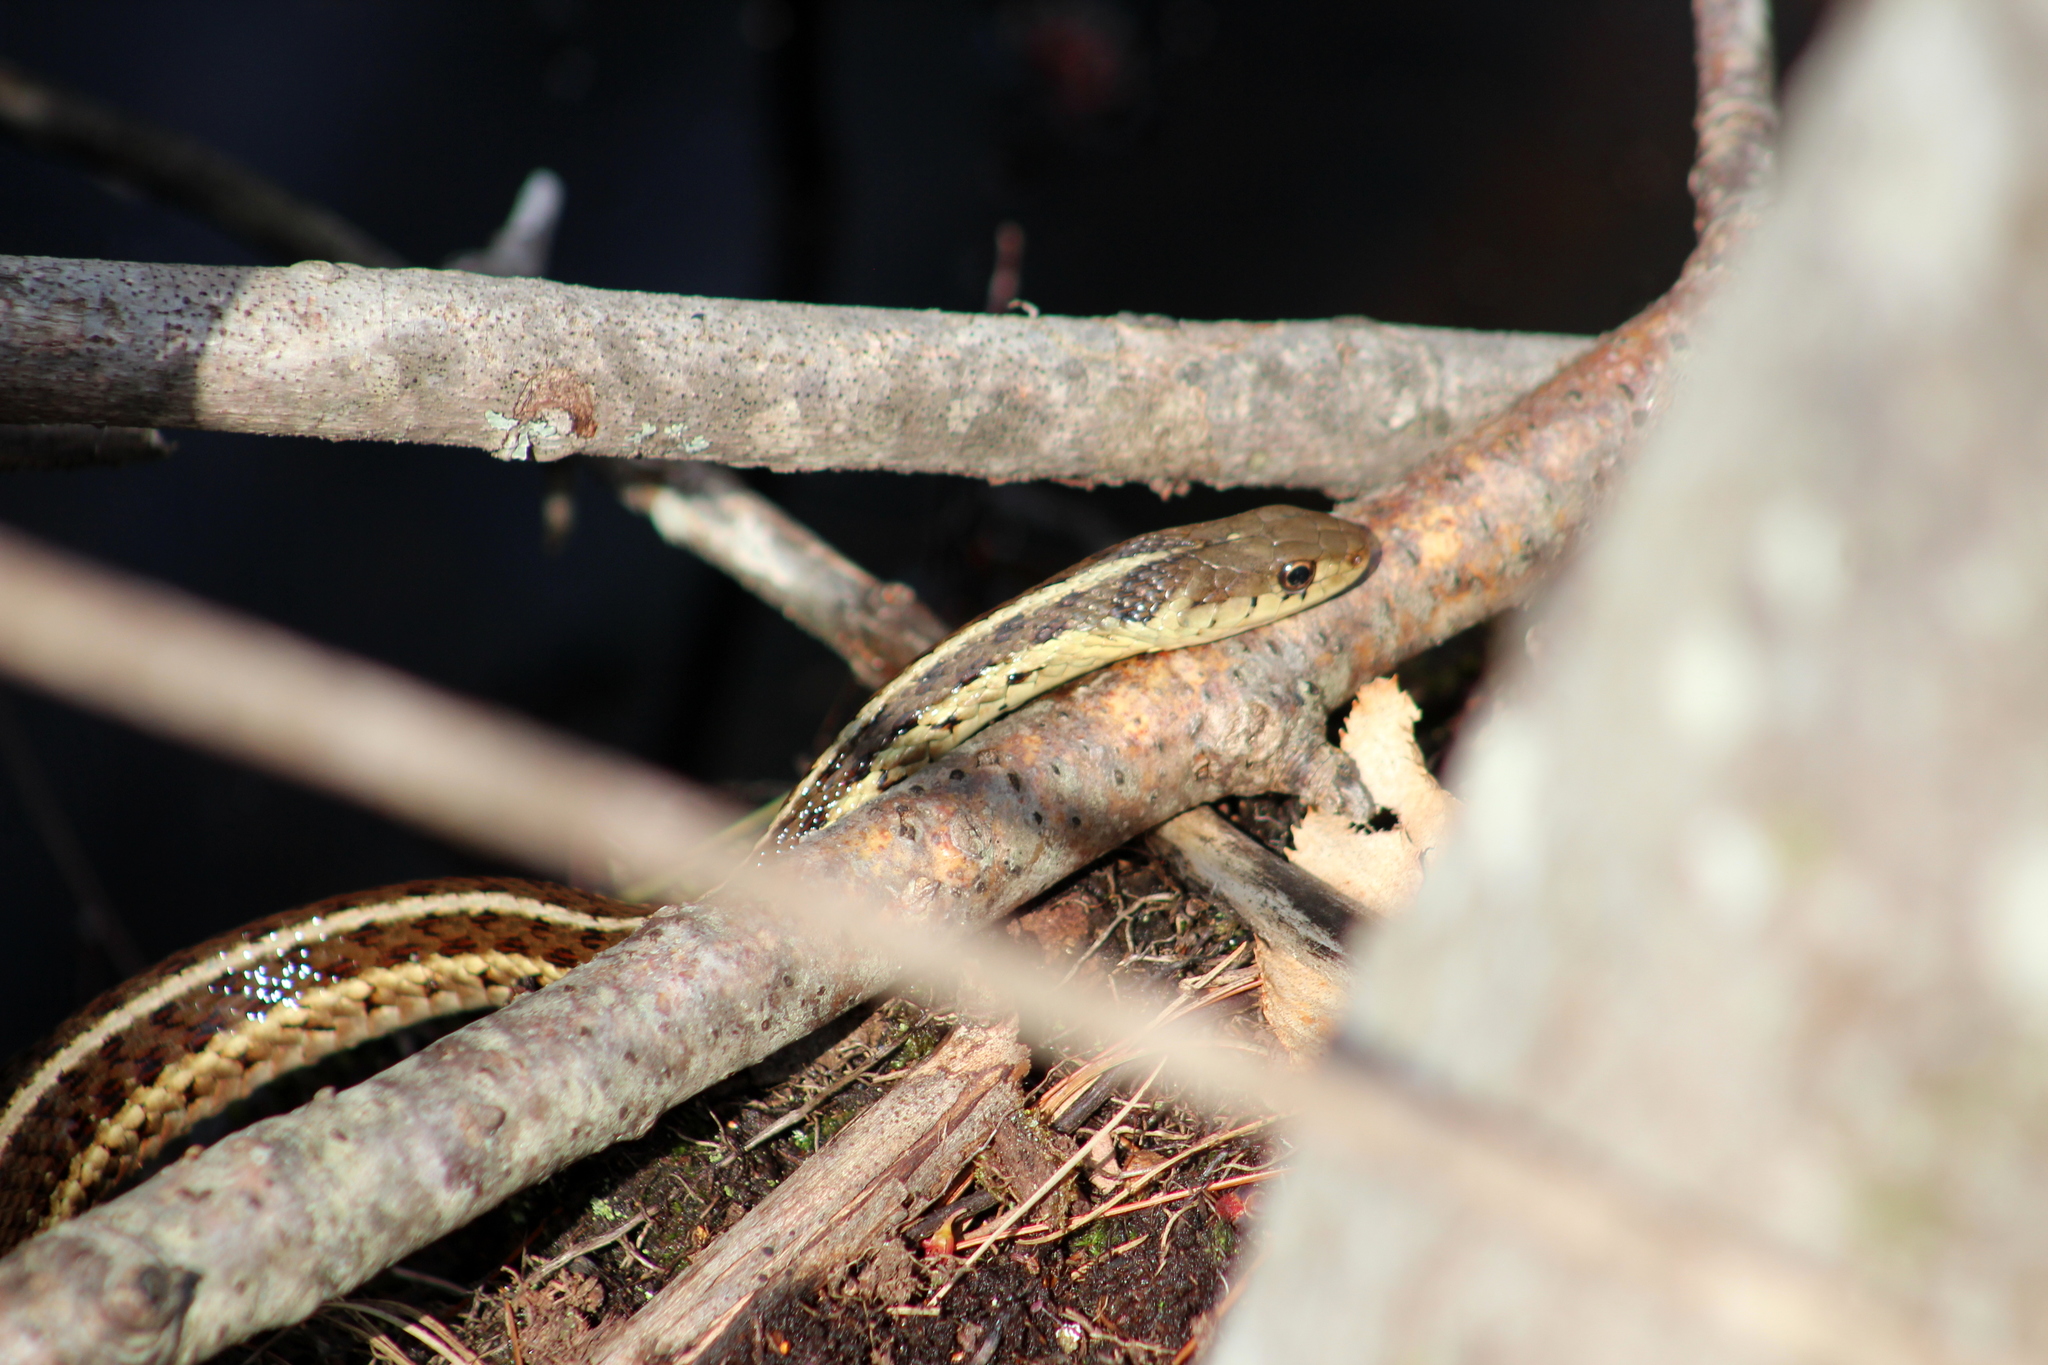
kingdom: Animalia
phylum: Chordata
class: Squamata
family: Colubridae
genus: Thamnophis
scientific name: Thamnophis sirtalis
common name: Common garter snake
